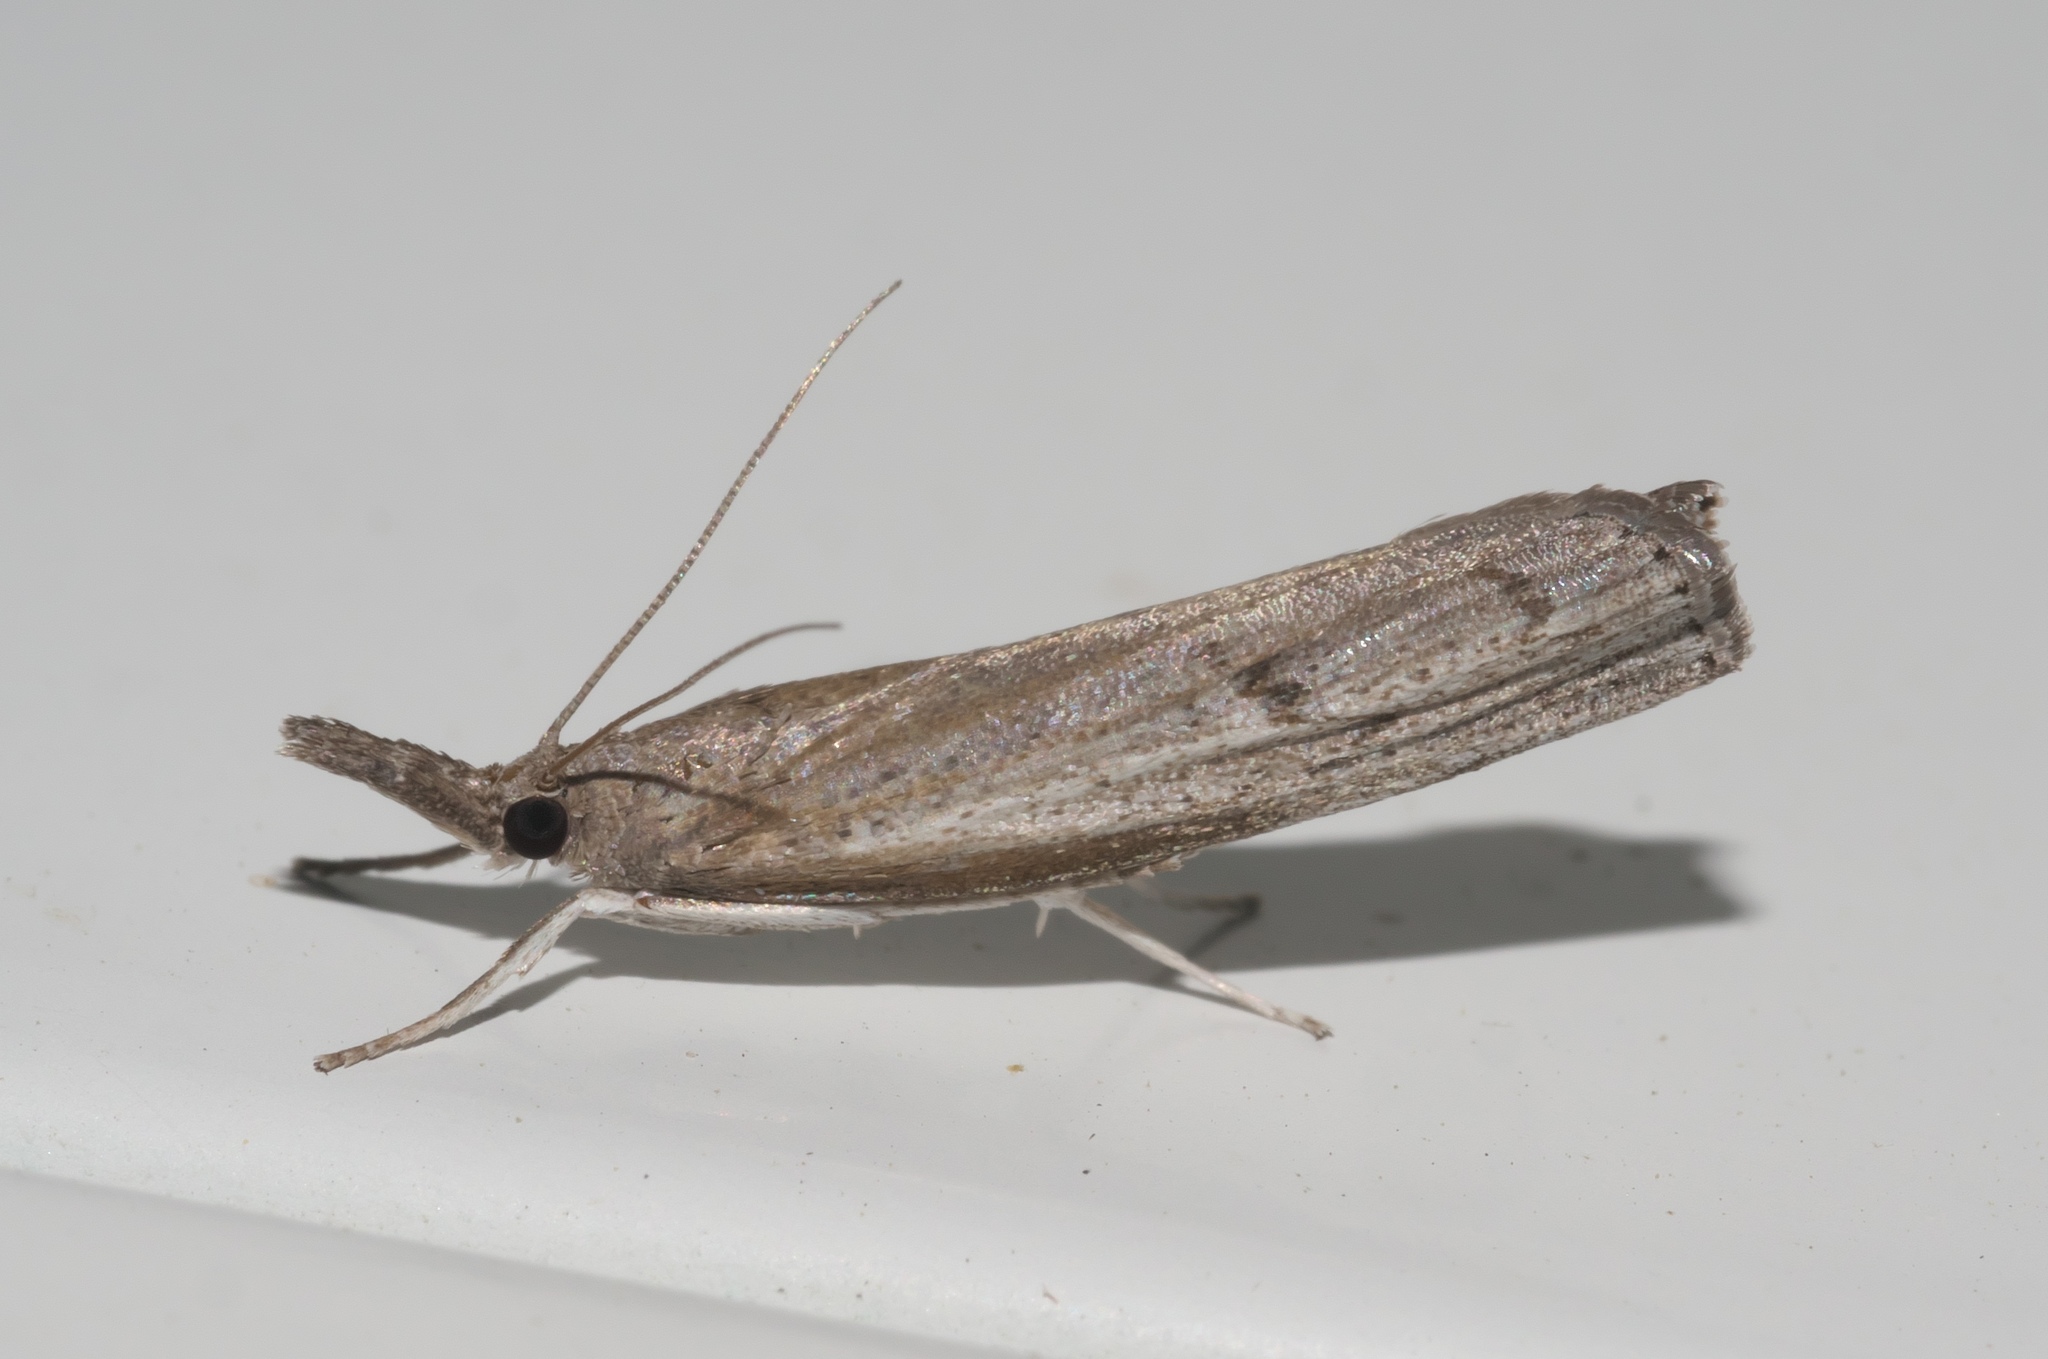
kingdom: Animalia
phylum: Arthropoda
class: Insecta
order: Lepidoptera
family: Crambidae
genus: Parapediasia
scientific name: Parapediasia teterellus
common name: Bluegrass webworm moth
